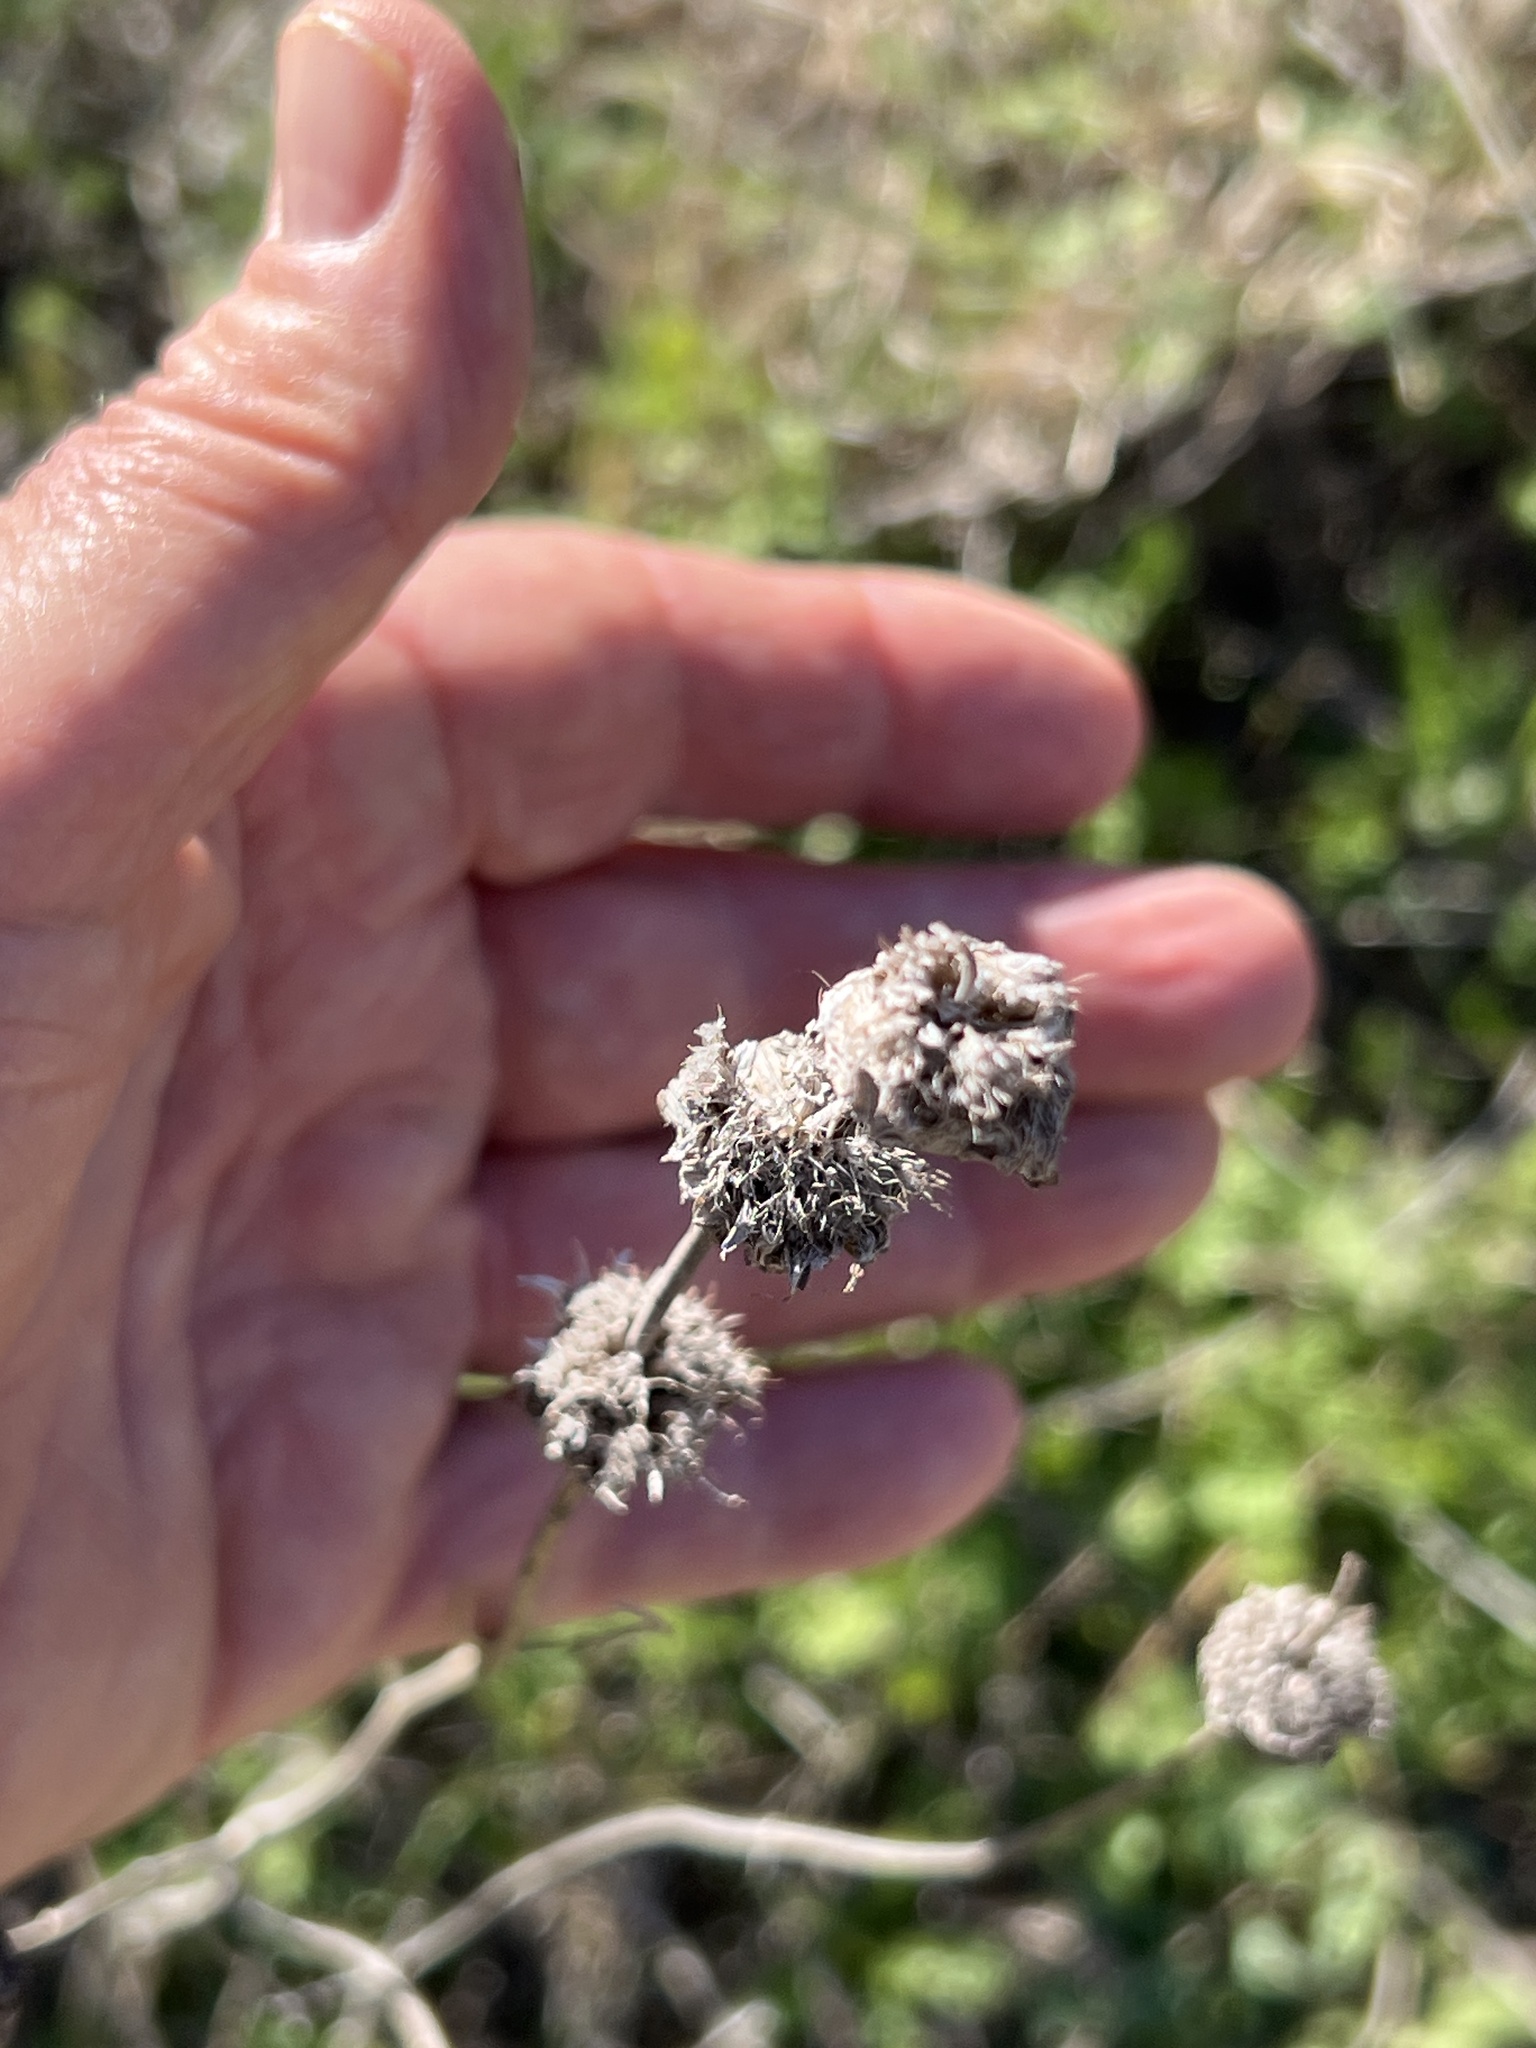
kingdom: Plantae
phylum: Tracheophyta
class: Magnoliopsida
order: Lamiales
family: Lamiaceae
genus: Monarda
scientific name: Monarda citriodora
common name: Lemon beebalm
